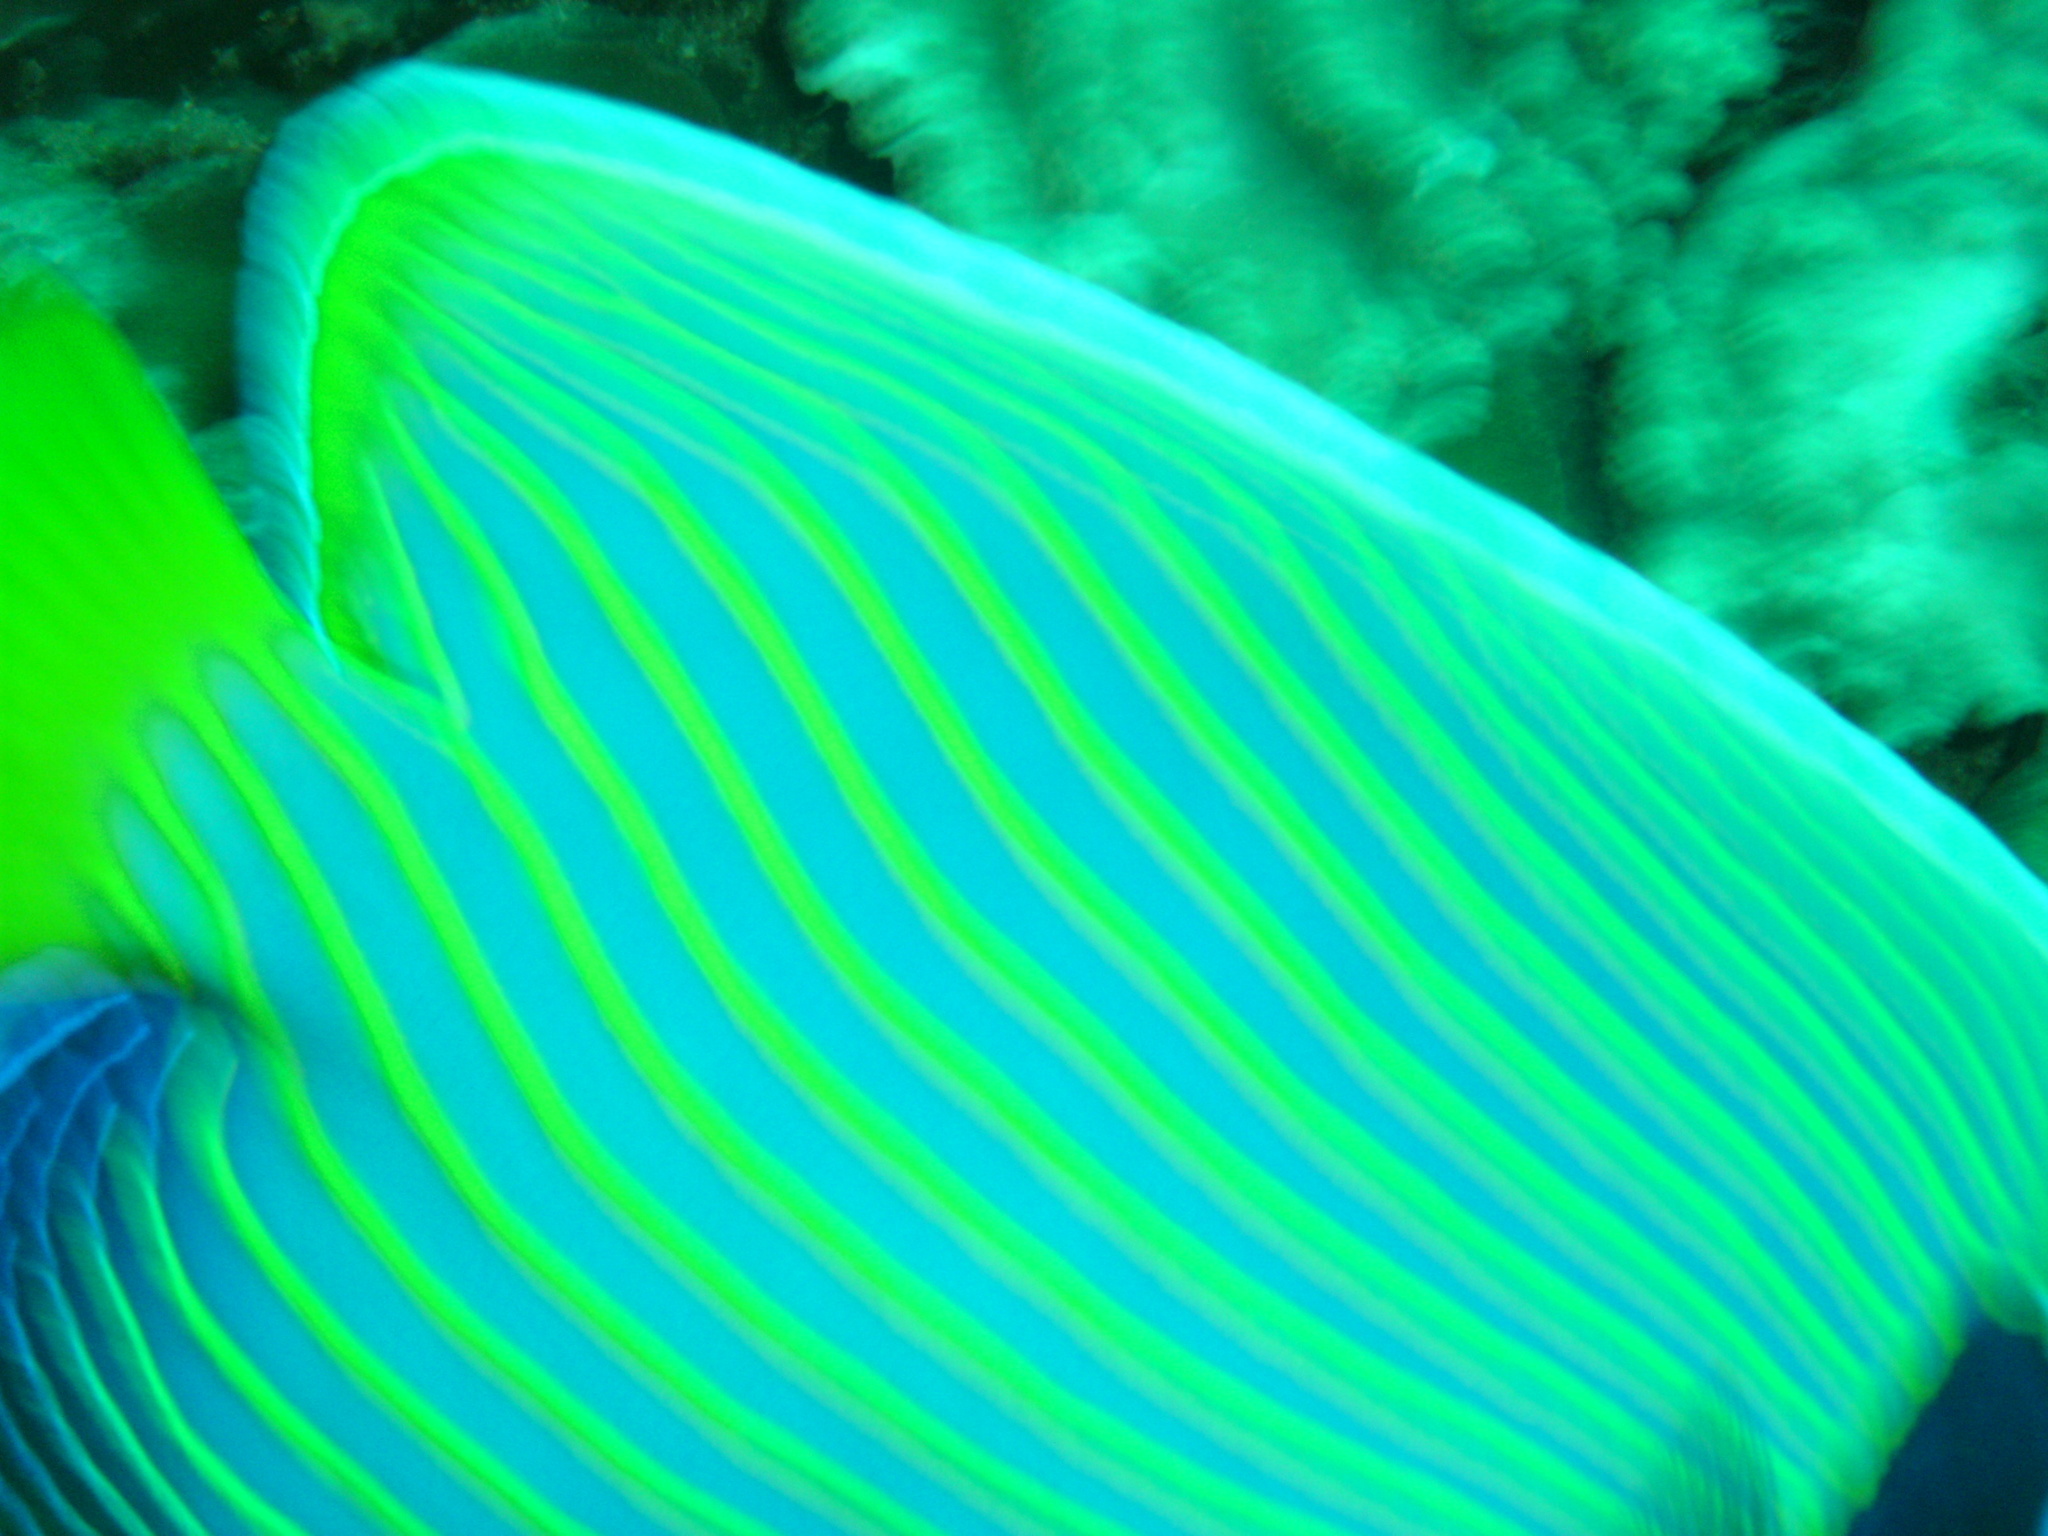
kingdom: Animalia
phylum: Chordata
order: Perciformes
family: Pomacanthidae
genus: Pomacanthus
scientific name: Pomacanthus imperator
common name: Emperor angelfish
